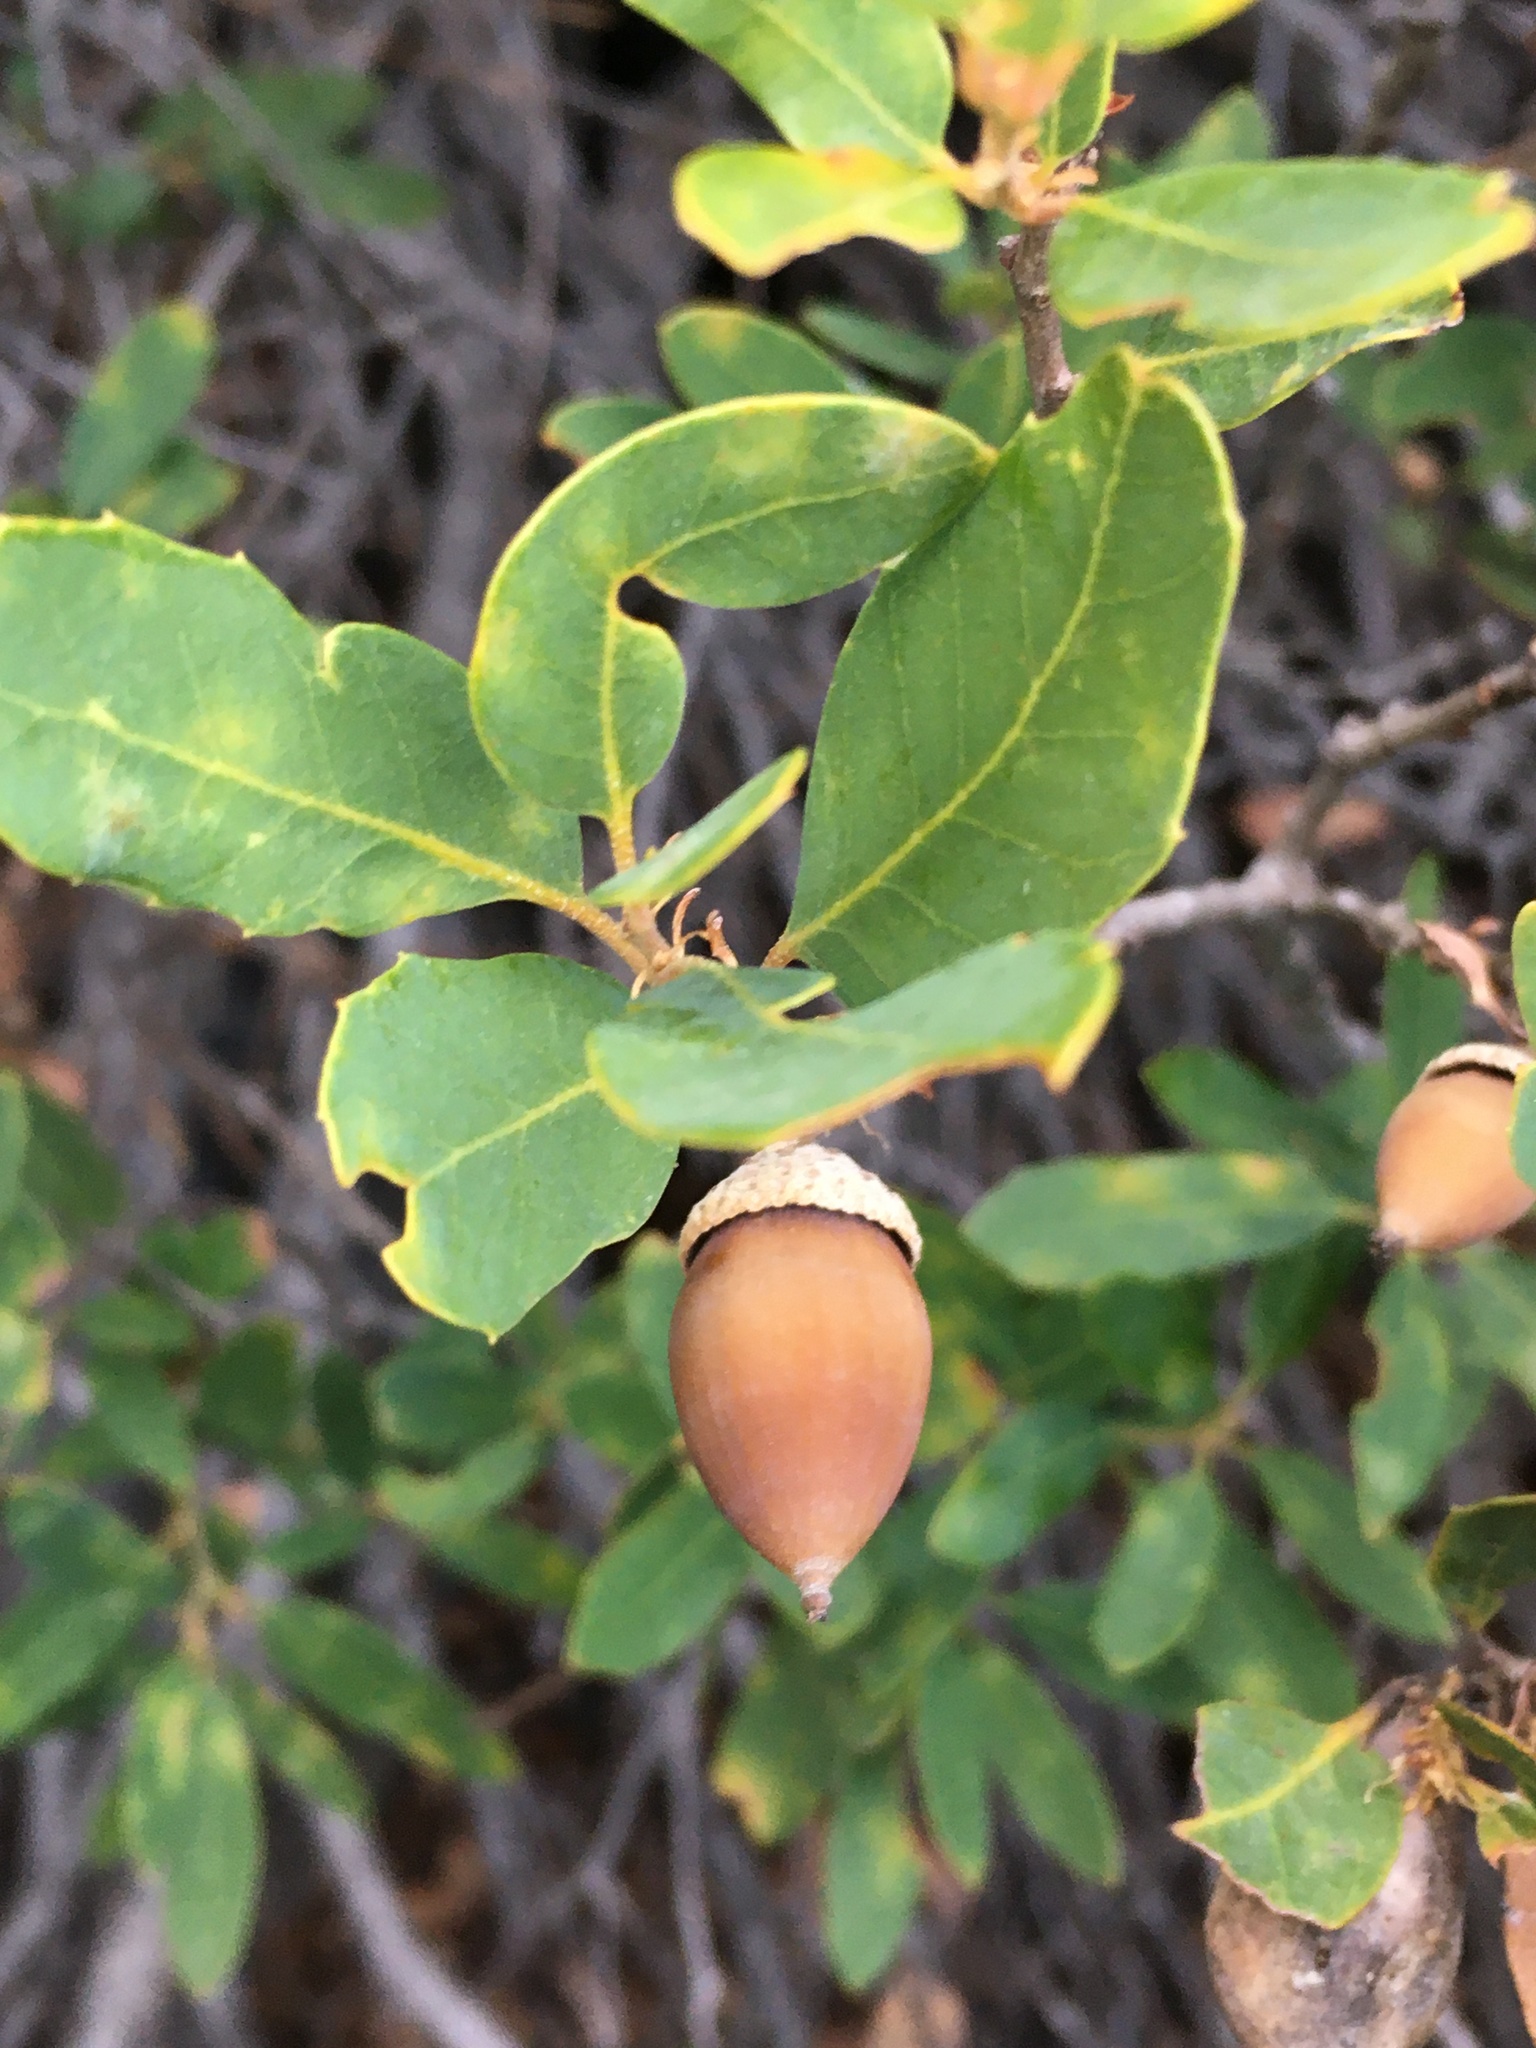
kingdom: Plantae
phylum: Tracheophyta
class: Magnoliopsida
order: Fagales
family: Fagaceae
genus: Quercus
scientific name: Quercus vacciniifolia
